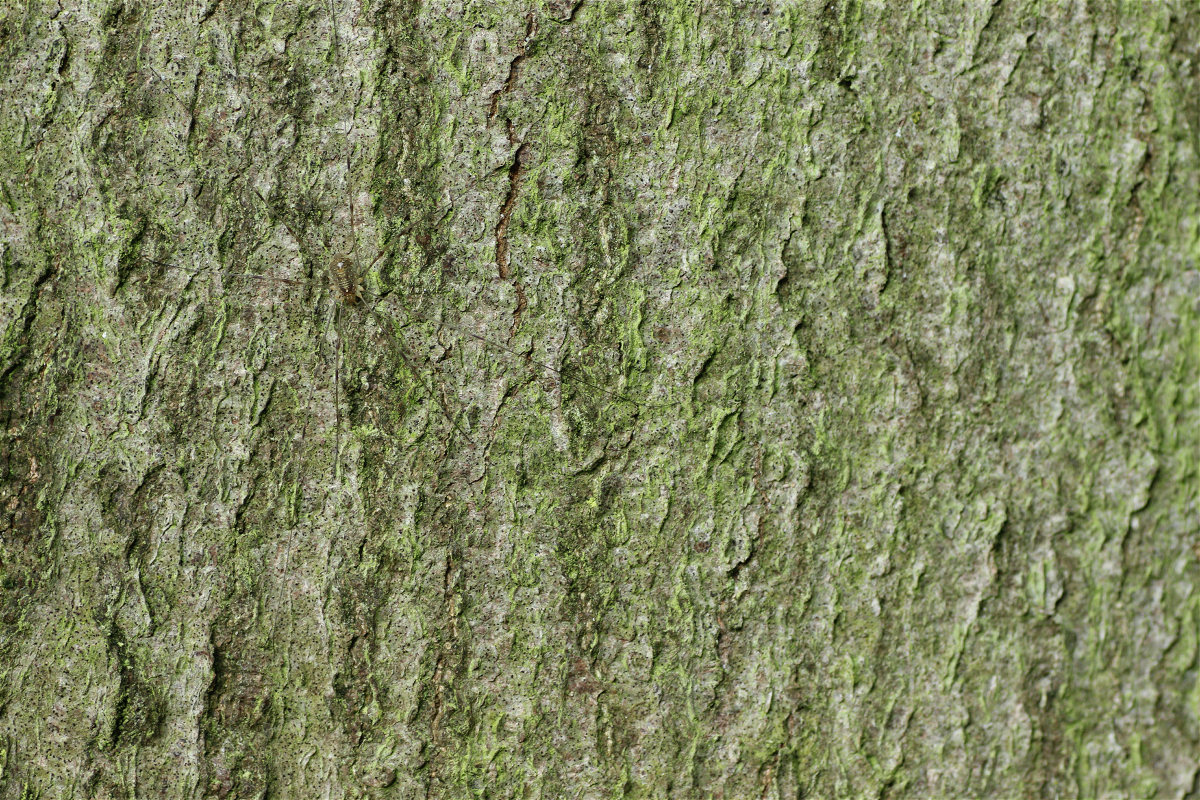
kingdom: Animalia
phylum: Arthropoda
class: Arachnida
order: Opiliones
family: Phalangiidae
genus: Opilio
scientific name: Opilio canestrinii
